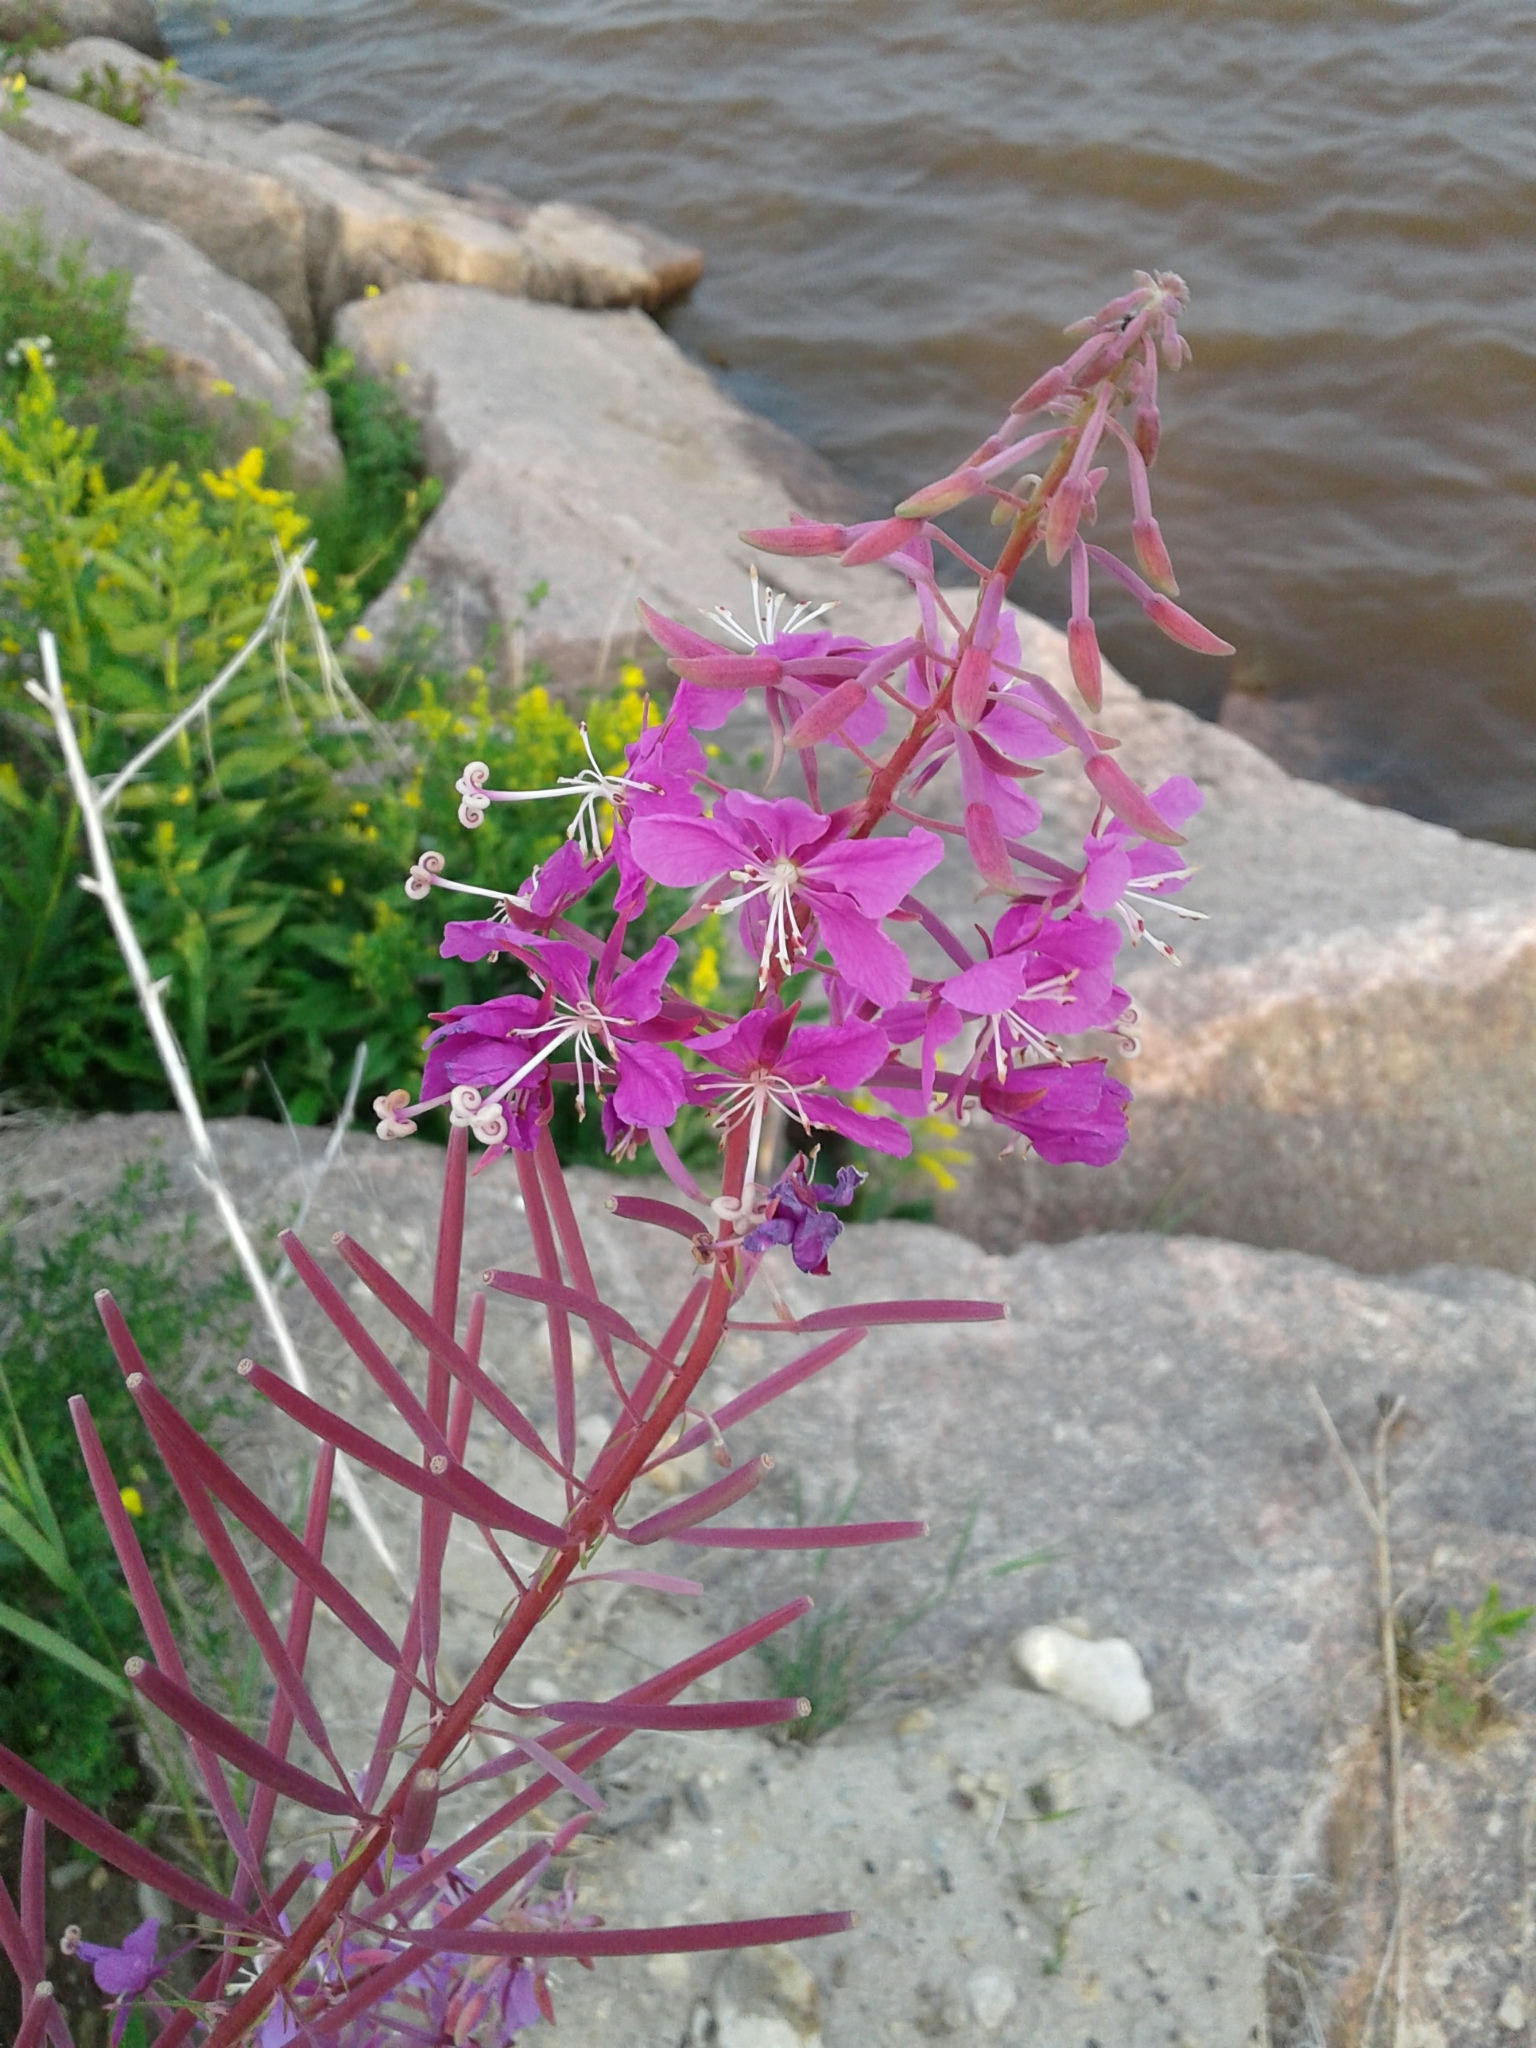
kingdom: Plantae
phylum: Tracheophyta
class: Magnoliopsida
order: Myrtales
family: Onagraceae
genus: Chamaenerion
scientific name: Chamaenerion angustifolium
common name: Fireweed
